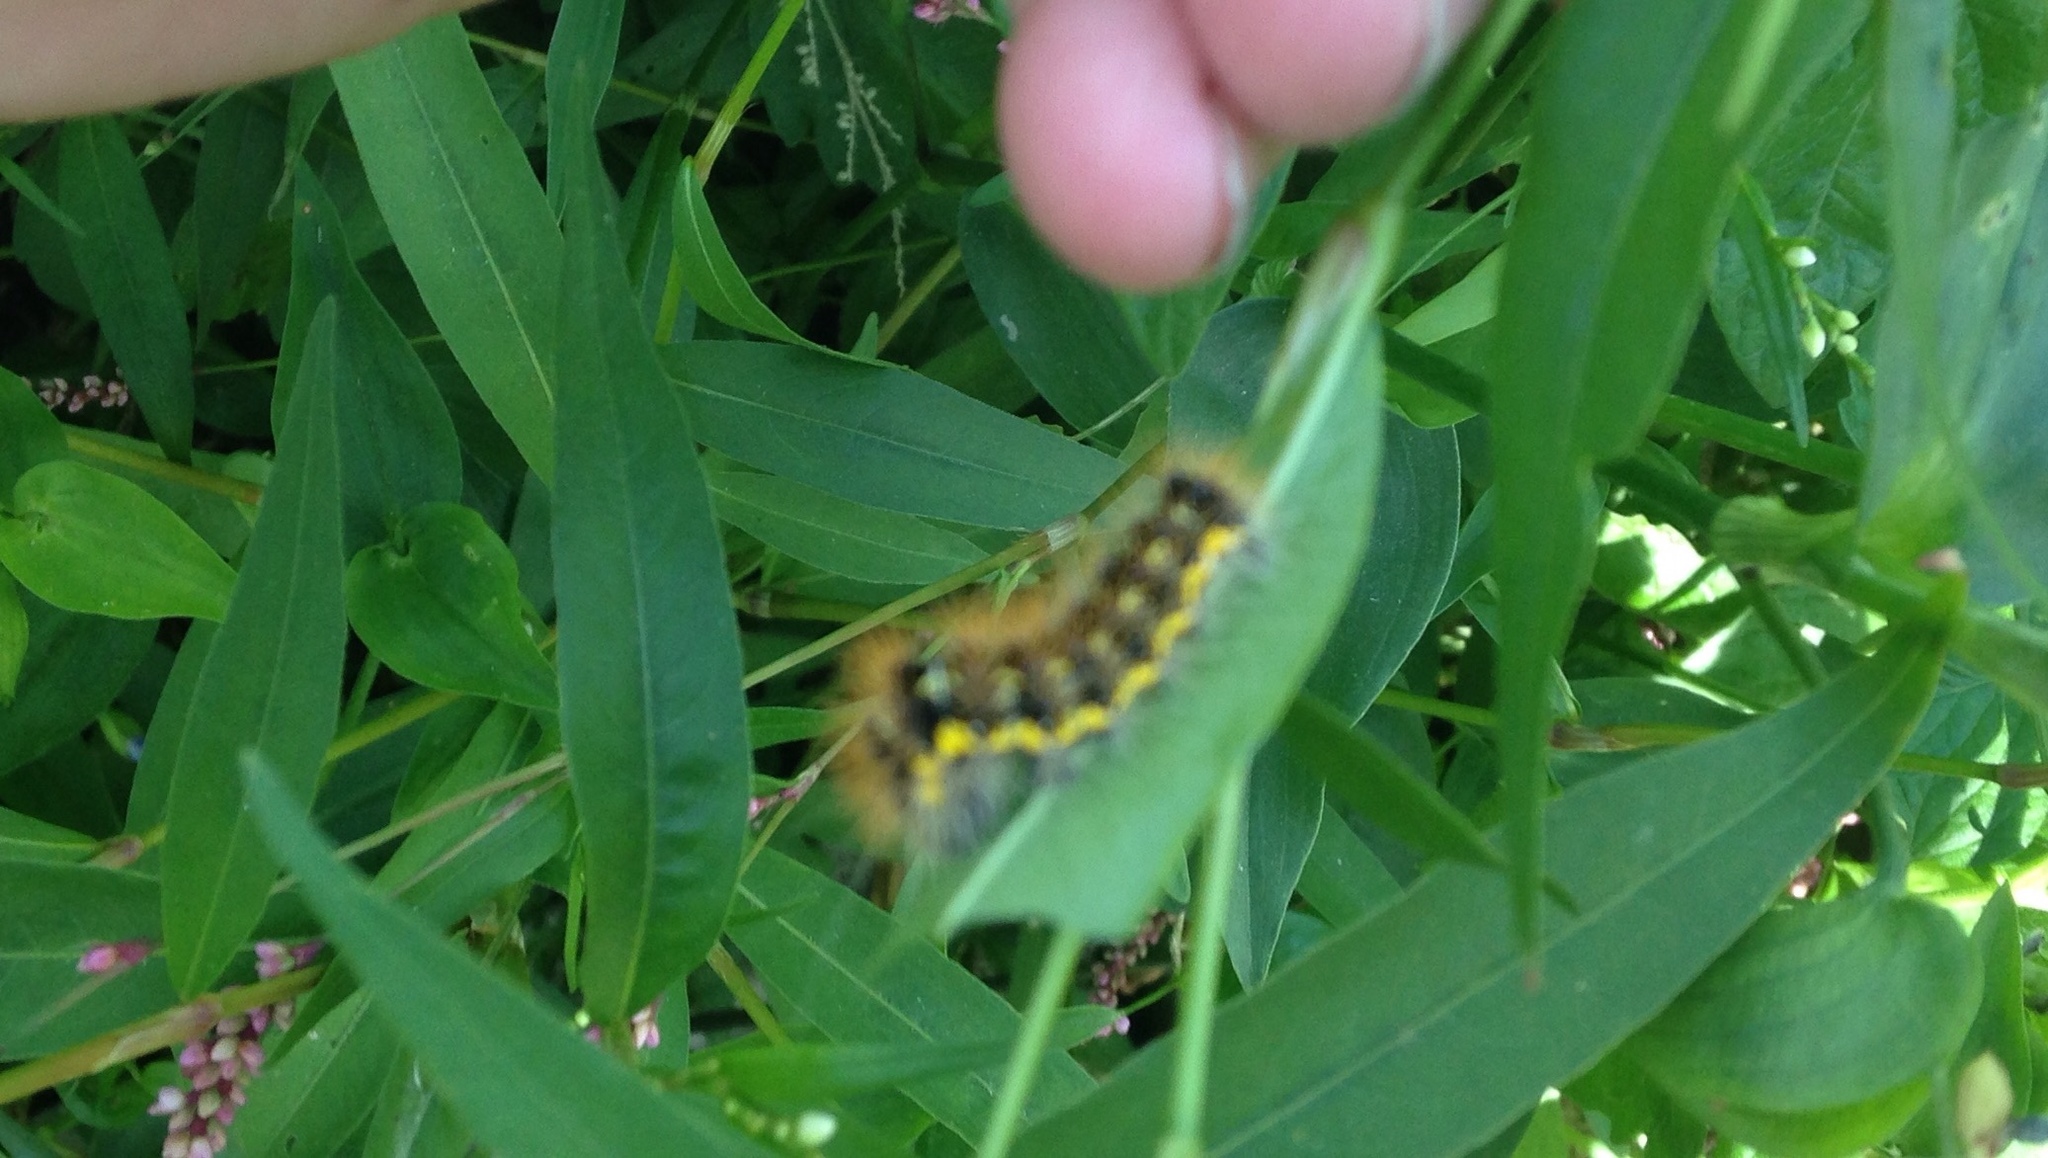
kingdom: Animalia
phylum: Arthropoda
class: Insecta
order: Lepidoptera
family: Noctuidae
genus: Acronicta
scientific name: Acronicta oblinita
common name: Smeared dagger
